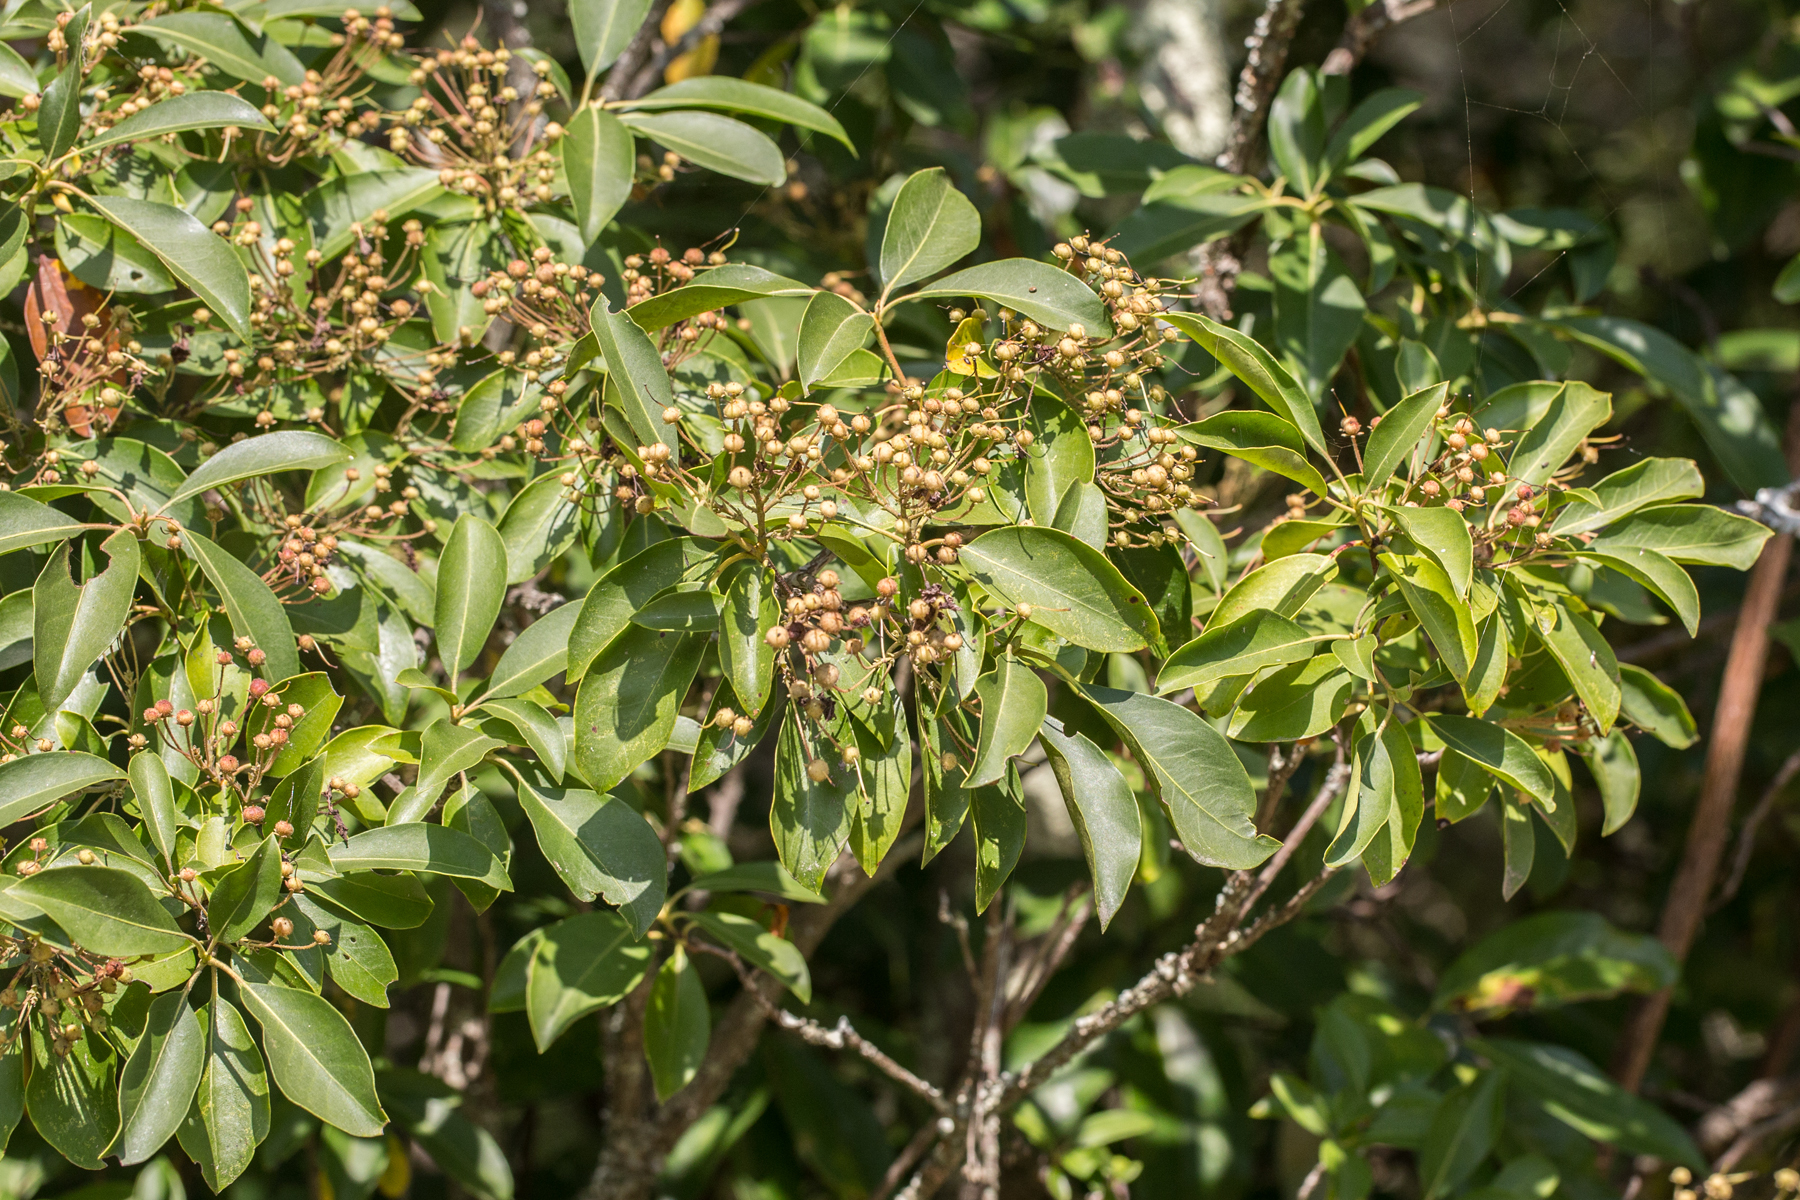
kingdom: Plantae
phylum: Tracheophyta
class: Magnoliopsida
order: Ericales
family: Ericaceae
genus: Kalmia
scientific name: Kalmia latifolia
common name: Mountain-laurel
